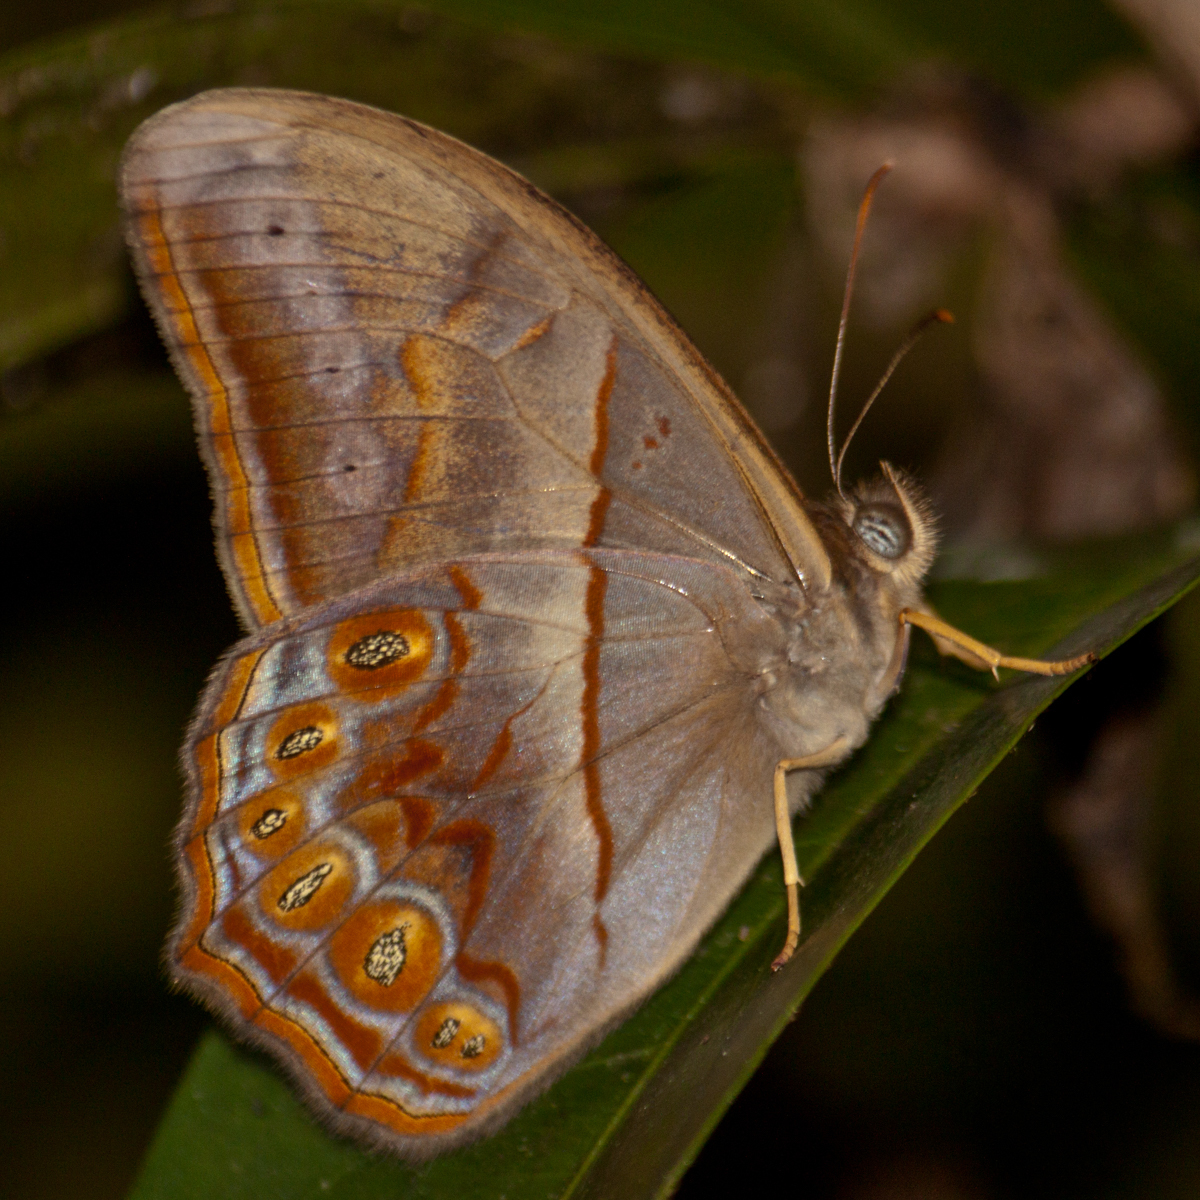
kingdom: Animalia
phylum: Arthropoda
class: Insecta
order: Lepidoptera
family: Nymphalidae
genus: Lethe
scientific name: Lethe minerva
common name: Banded red forester
